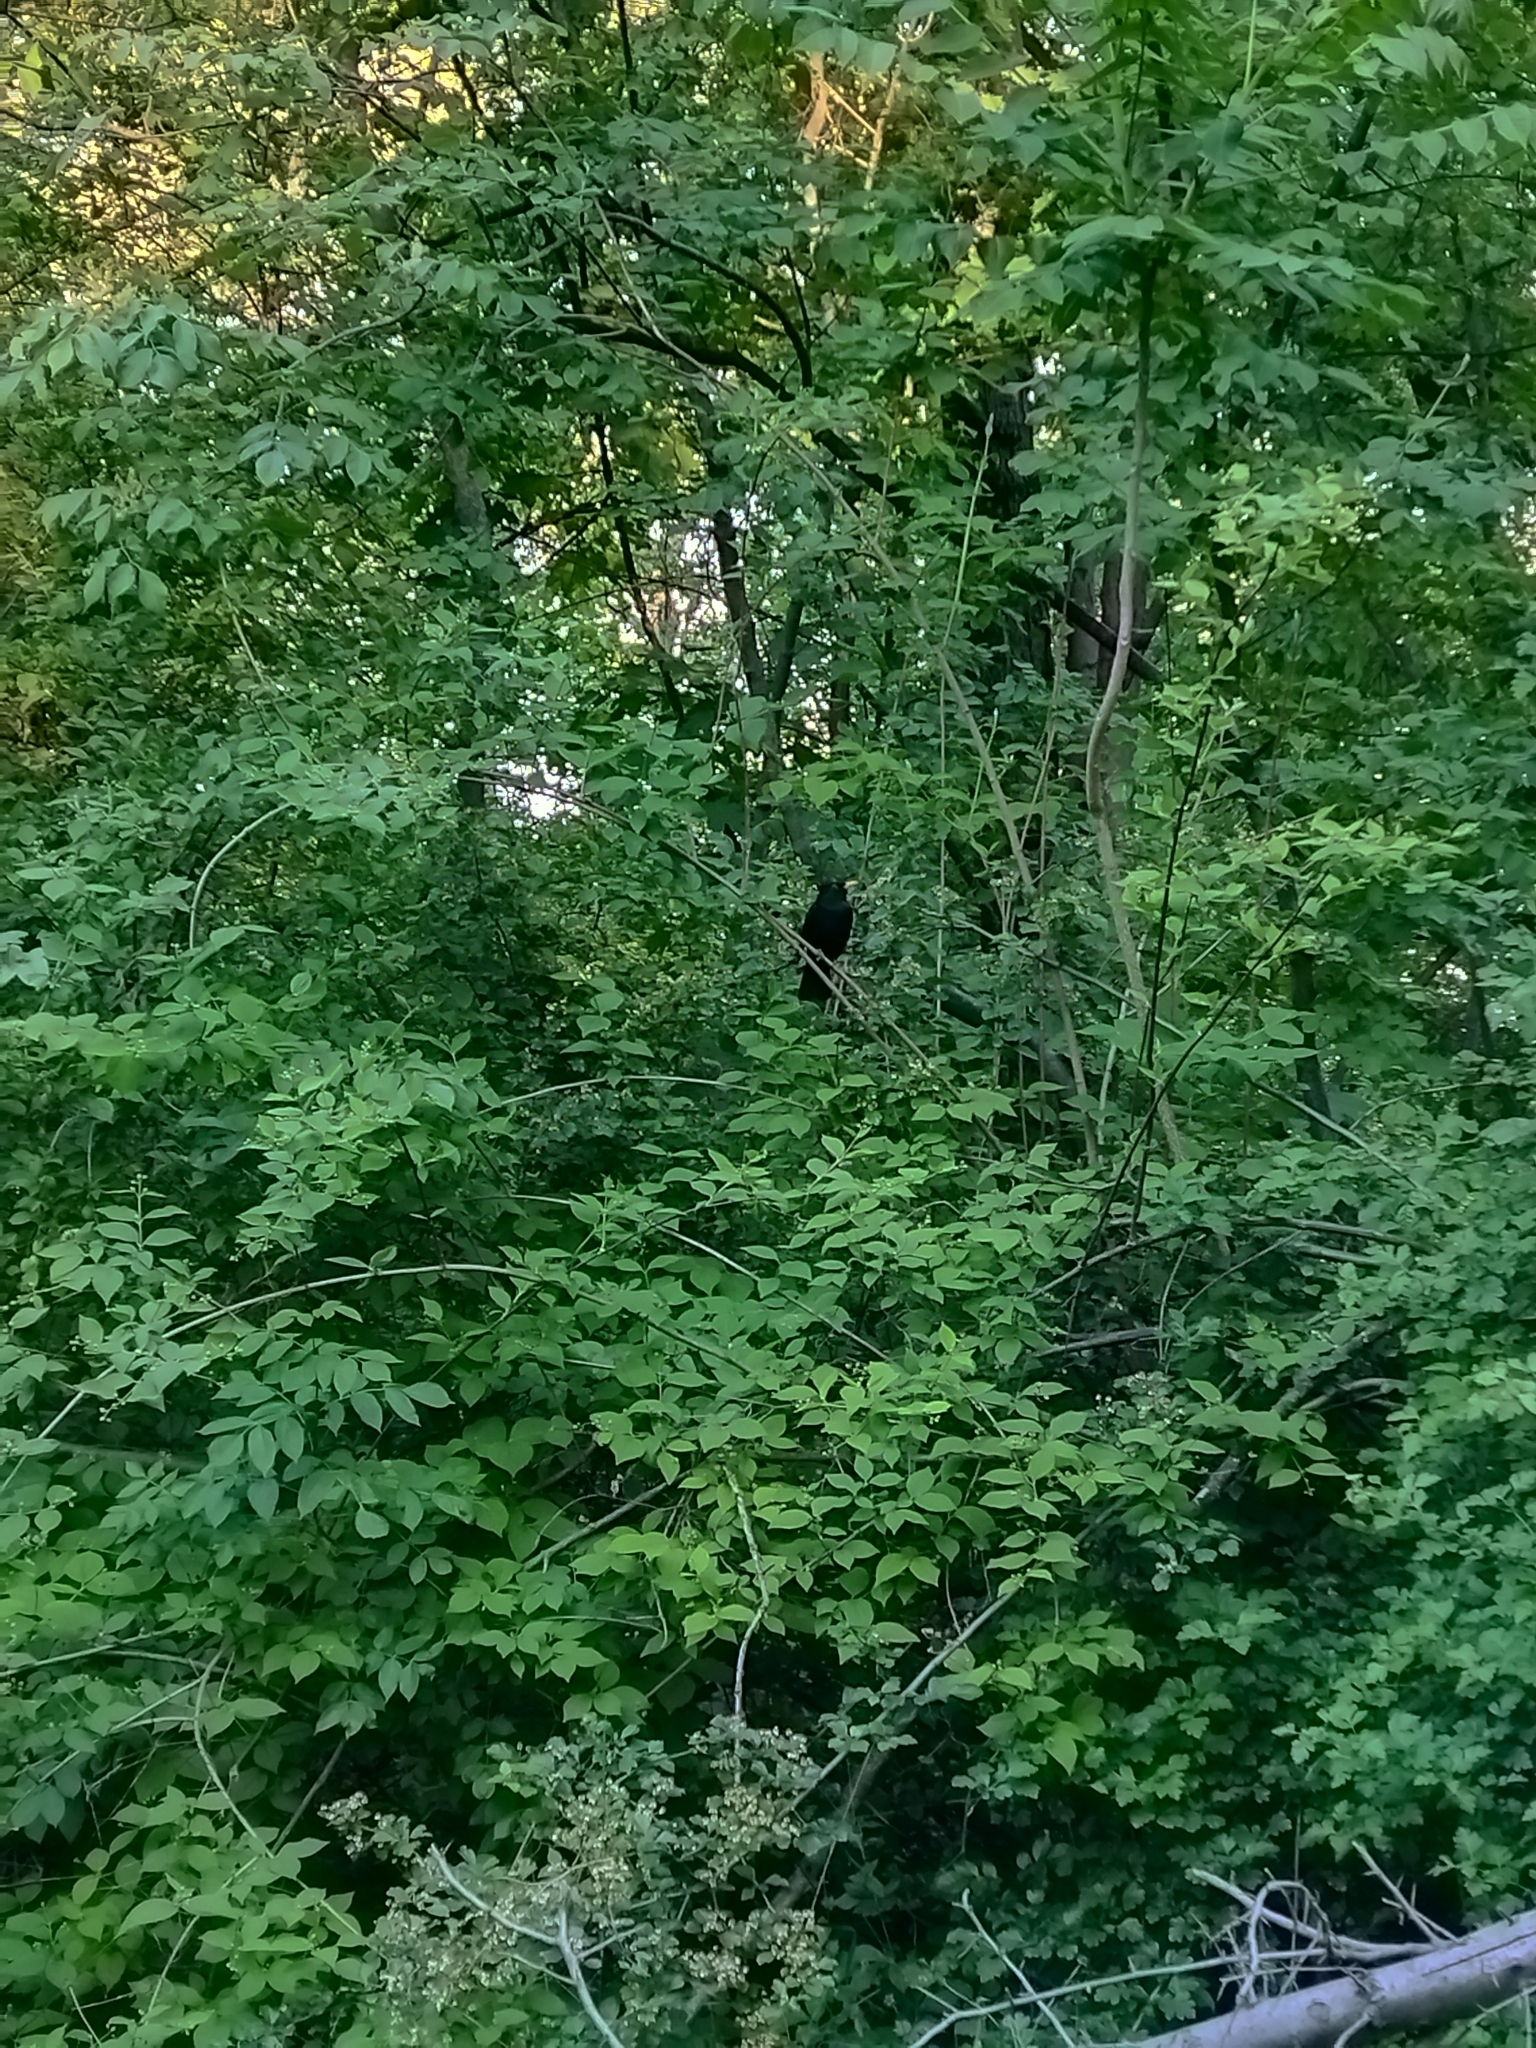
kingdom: Animalia
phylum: Chordata
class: Aves
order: Passeriformes
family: Turdidae
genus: Turdus
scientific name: Turdus merula
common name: Common blackbird
